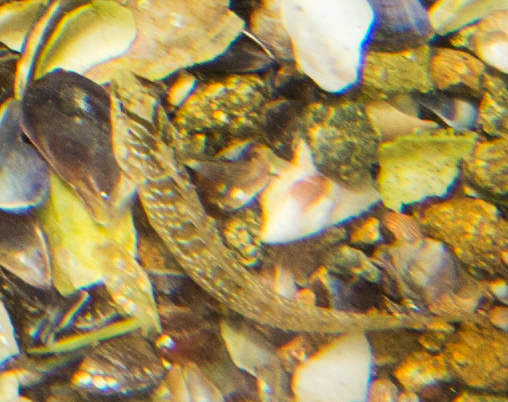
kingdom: Animalia
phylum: Chordata
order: Perciformes
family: Blenniidae
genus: Salaria
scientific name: Salaria pavo
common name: Peacock blenny
